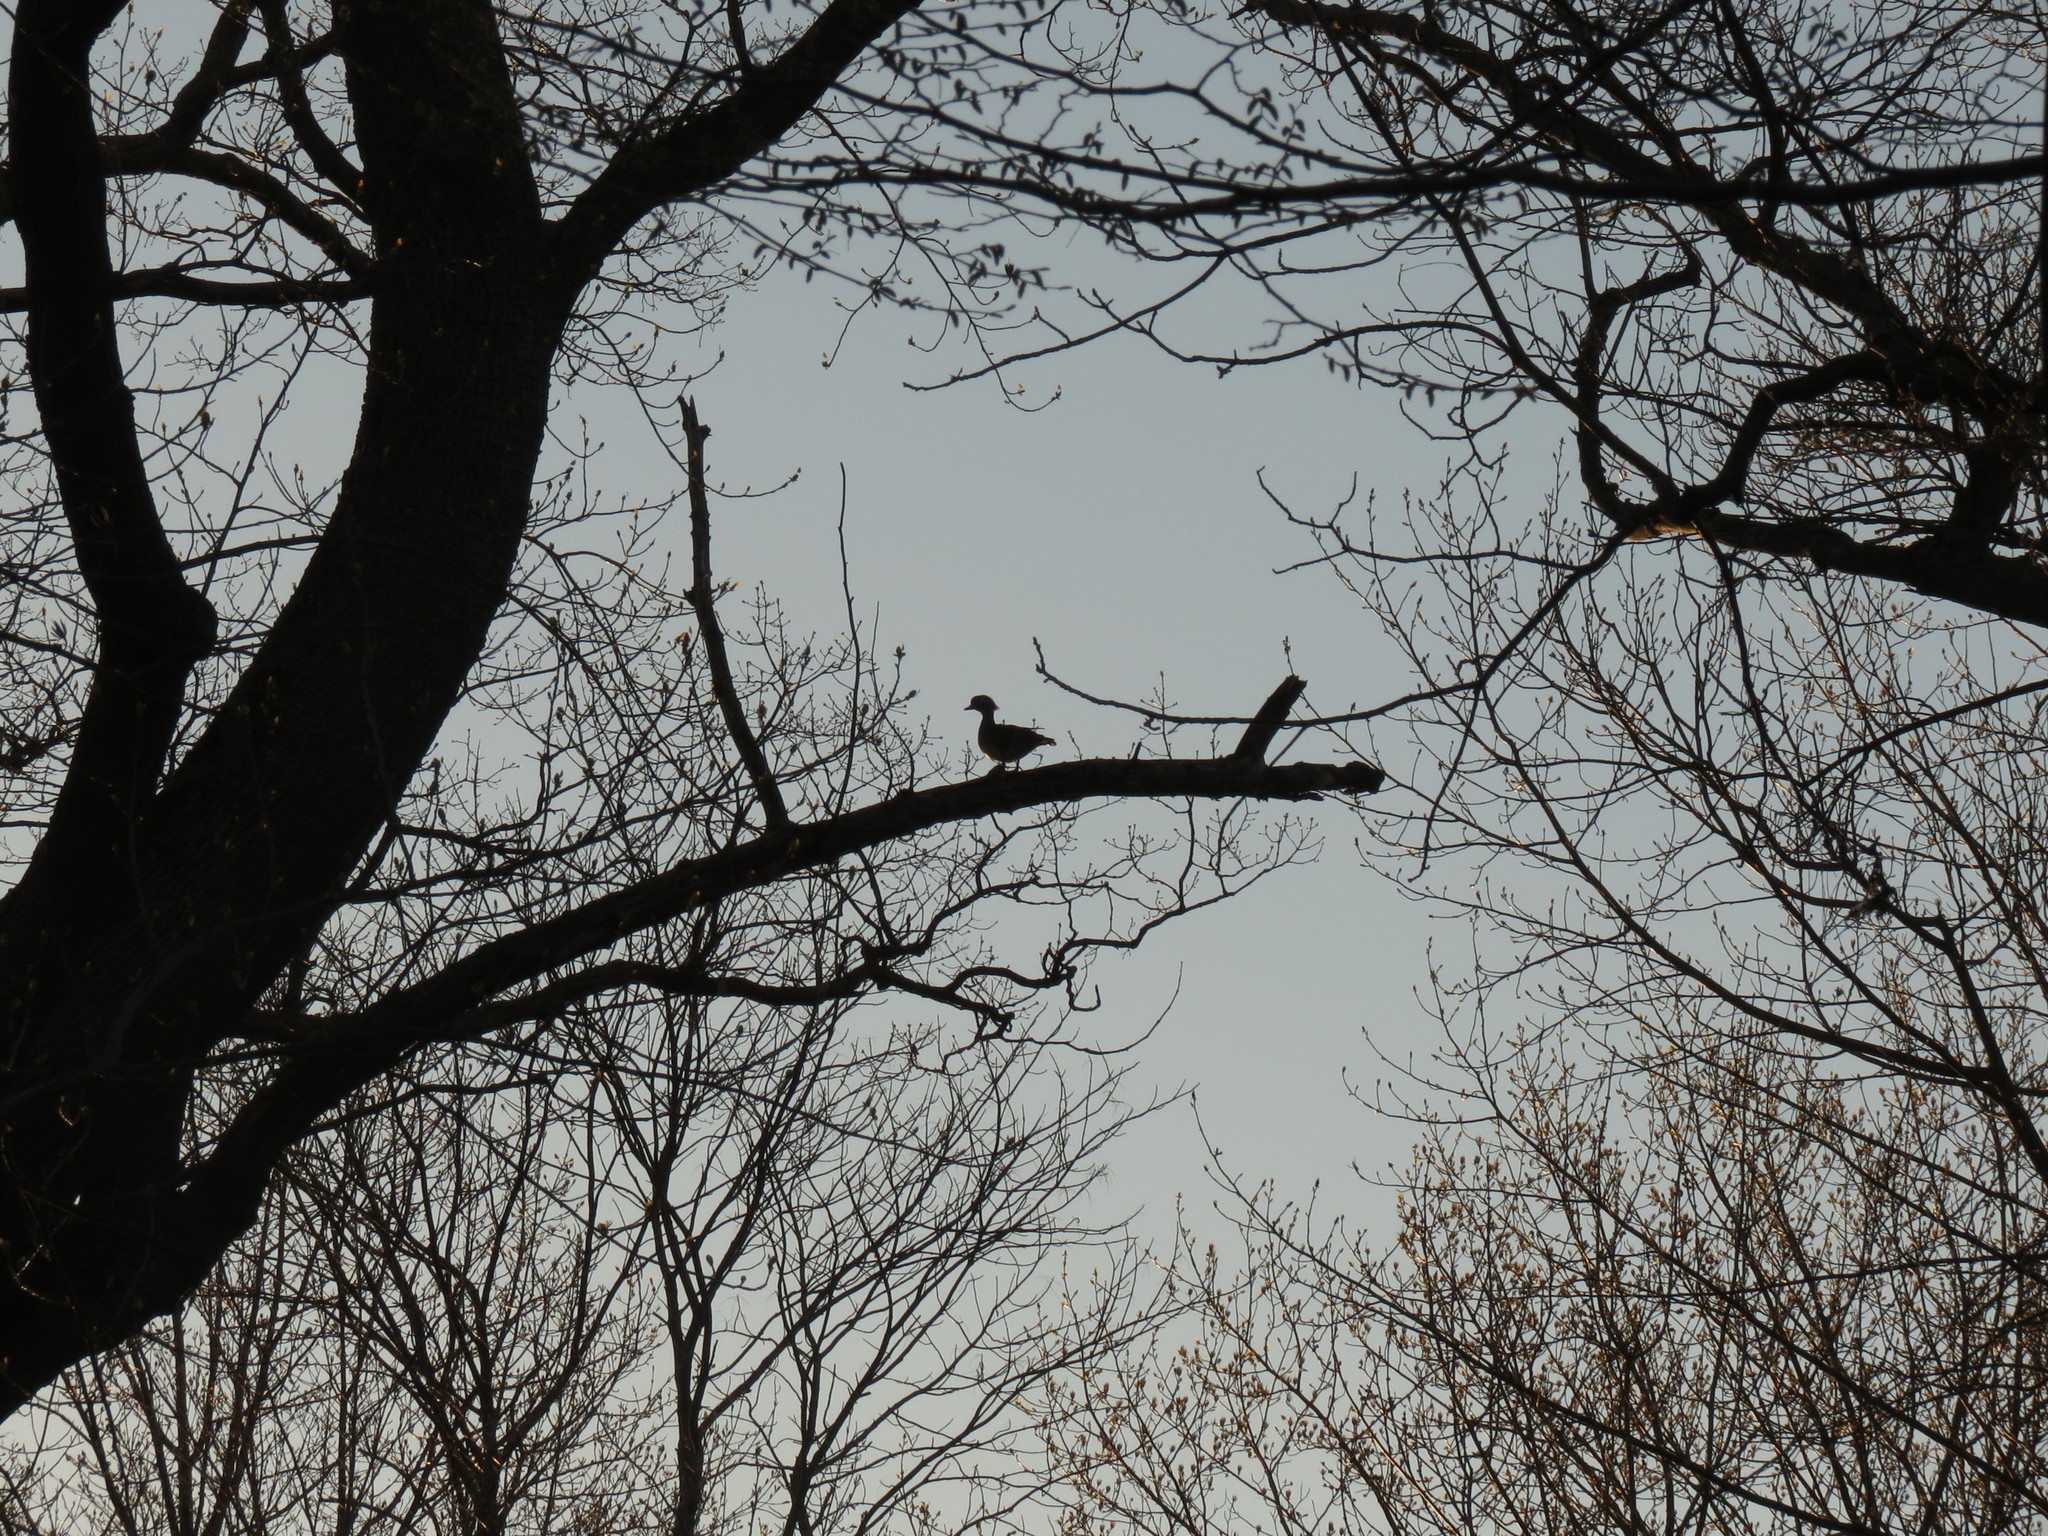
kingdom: Animalia
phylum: Chordata
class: Aves
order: Anseriformes
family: Anatidae
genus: Aix
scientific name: Aix sponsa
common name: Wood duck
